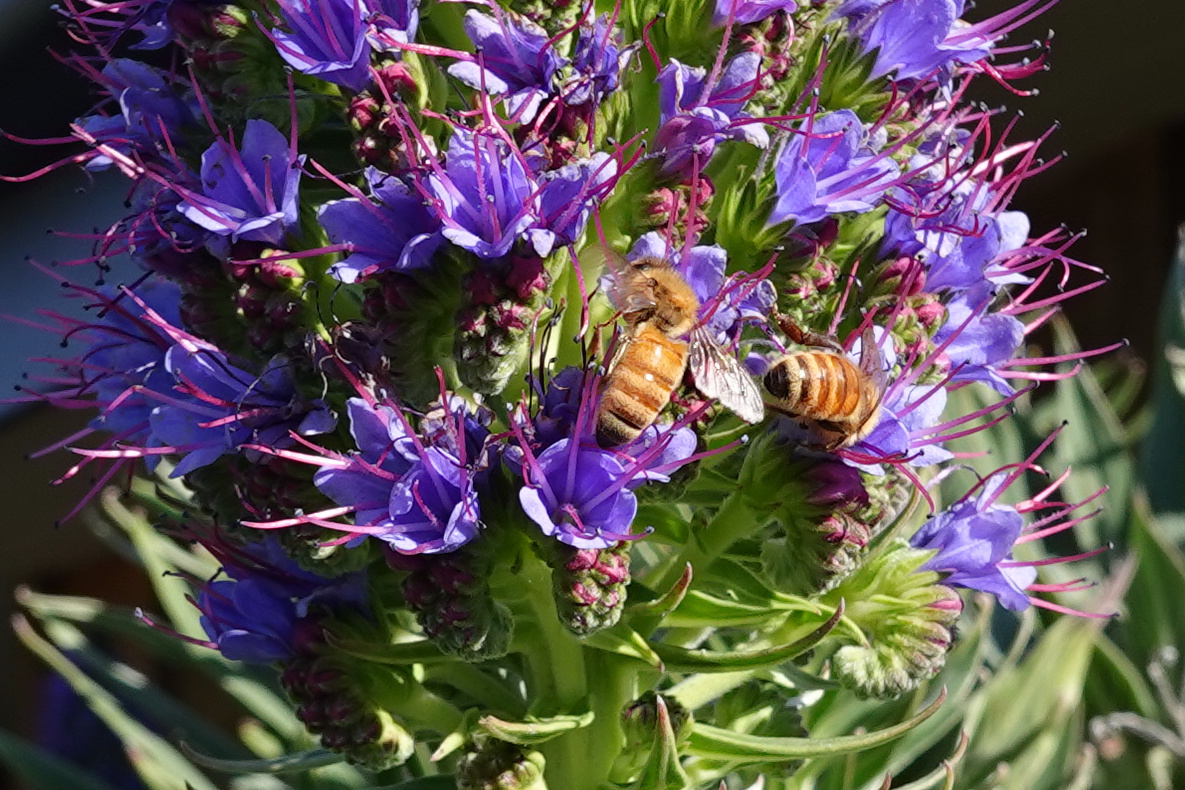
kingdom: Animalia
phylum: Arthropoda
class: Insecta
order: Hymenoptera
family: Apidae
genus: Apis
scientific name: Apis mellifera
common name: Honey bee
